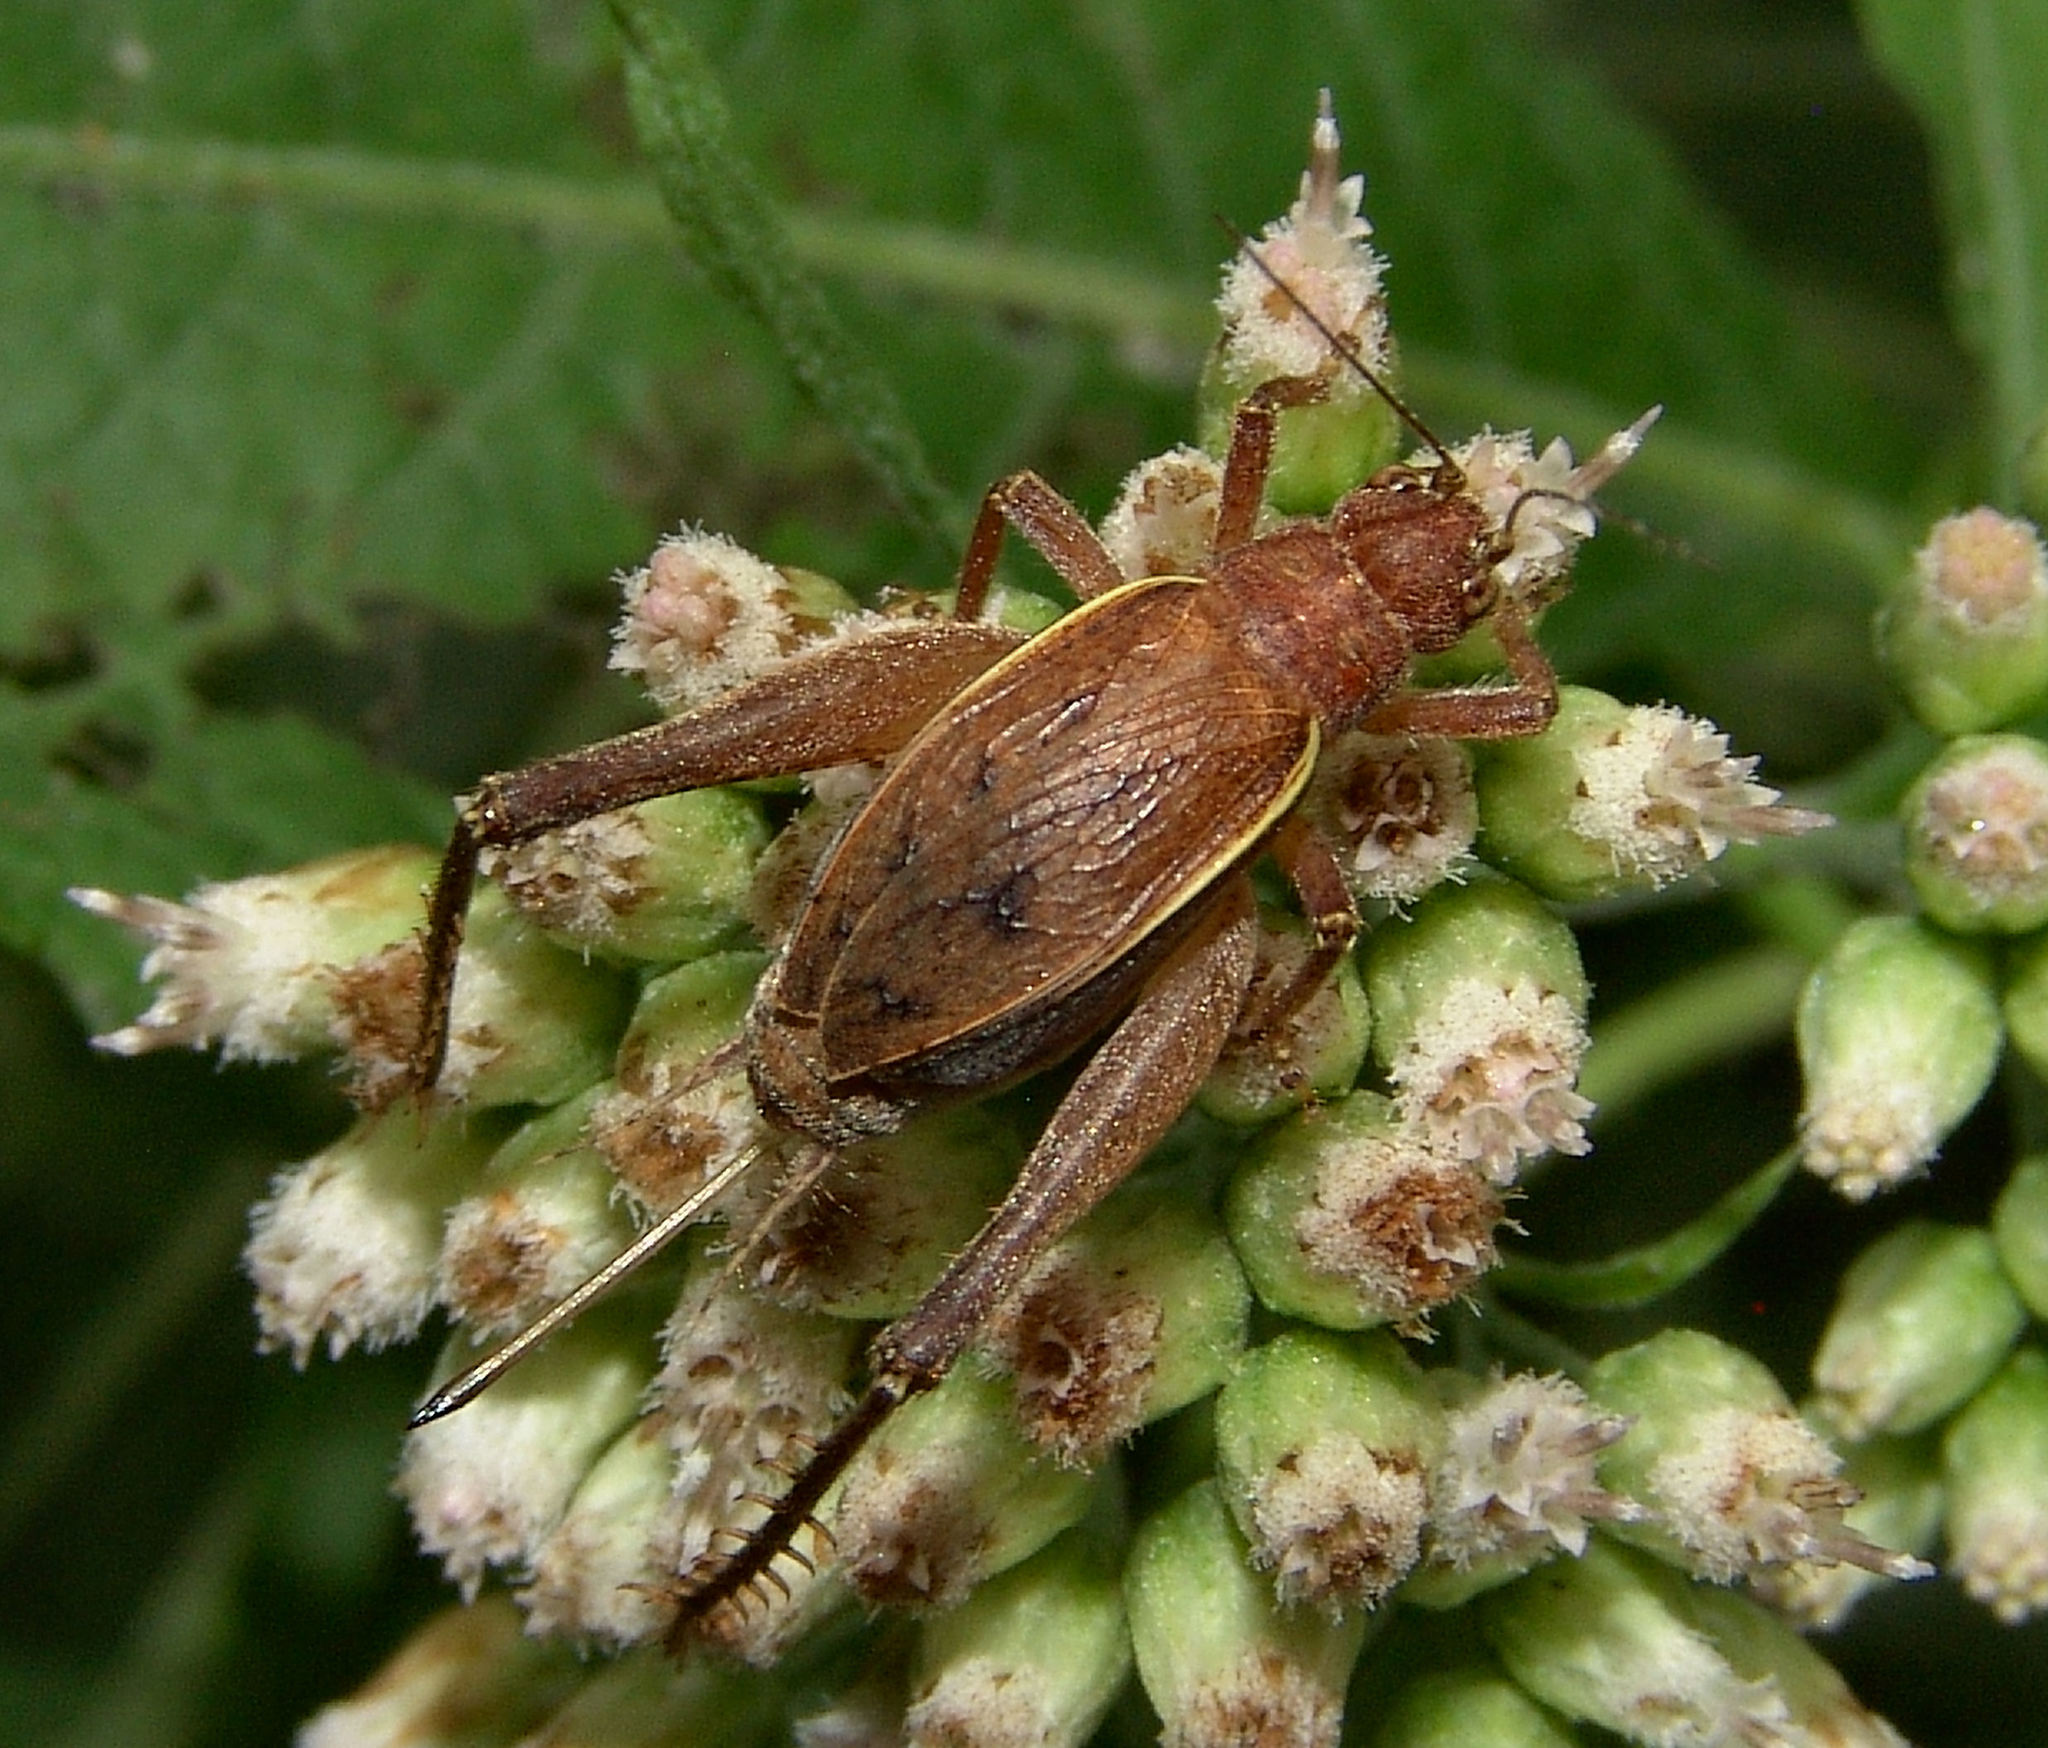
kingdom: Animalia
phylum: Arthropoda
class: Insecta
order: Orthoptera
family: Gryllidae
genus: Hapithus
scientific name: Hapithus agitator
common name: Restless bush cricket
